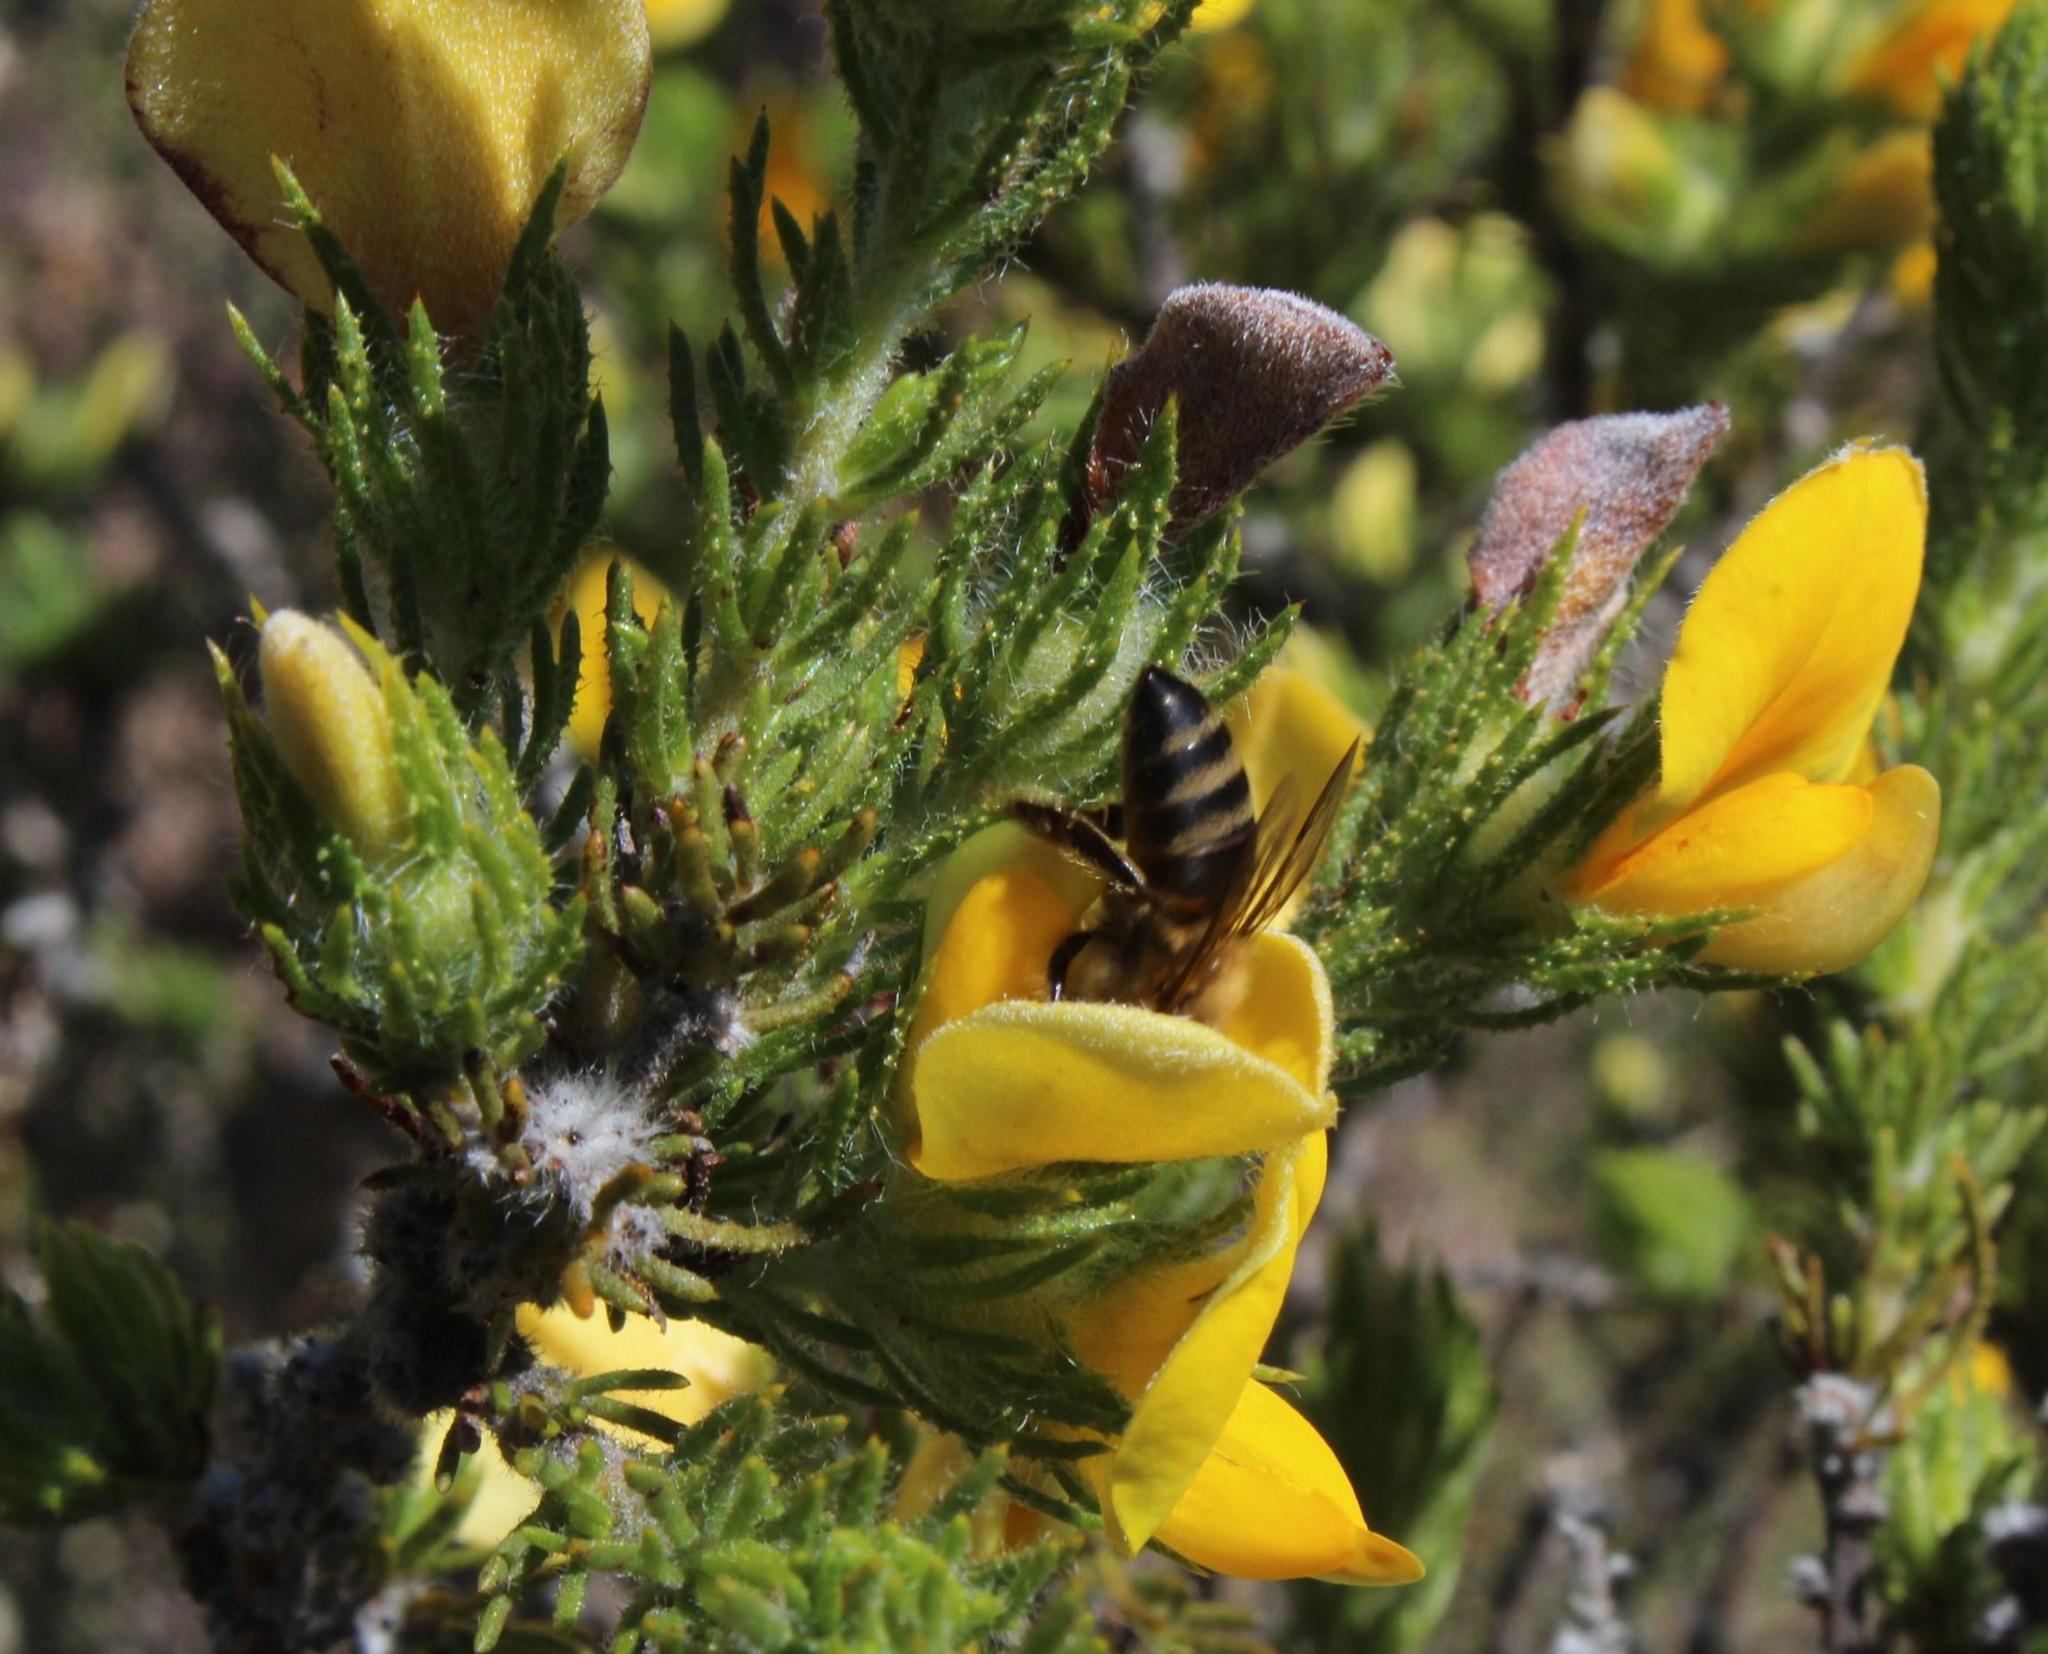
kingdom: Plantae
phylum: Tracheophyta
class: Magnoliopsida
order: Fabales
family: Fabaceae
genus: Aspalathus
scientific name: Aspalathus ciliaris
